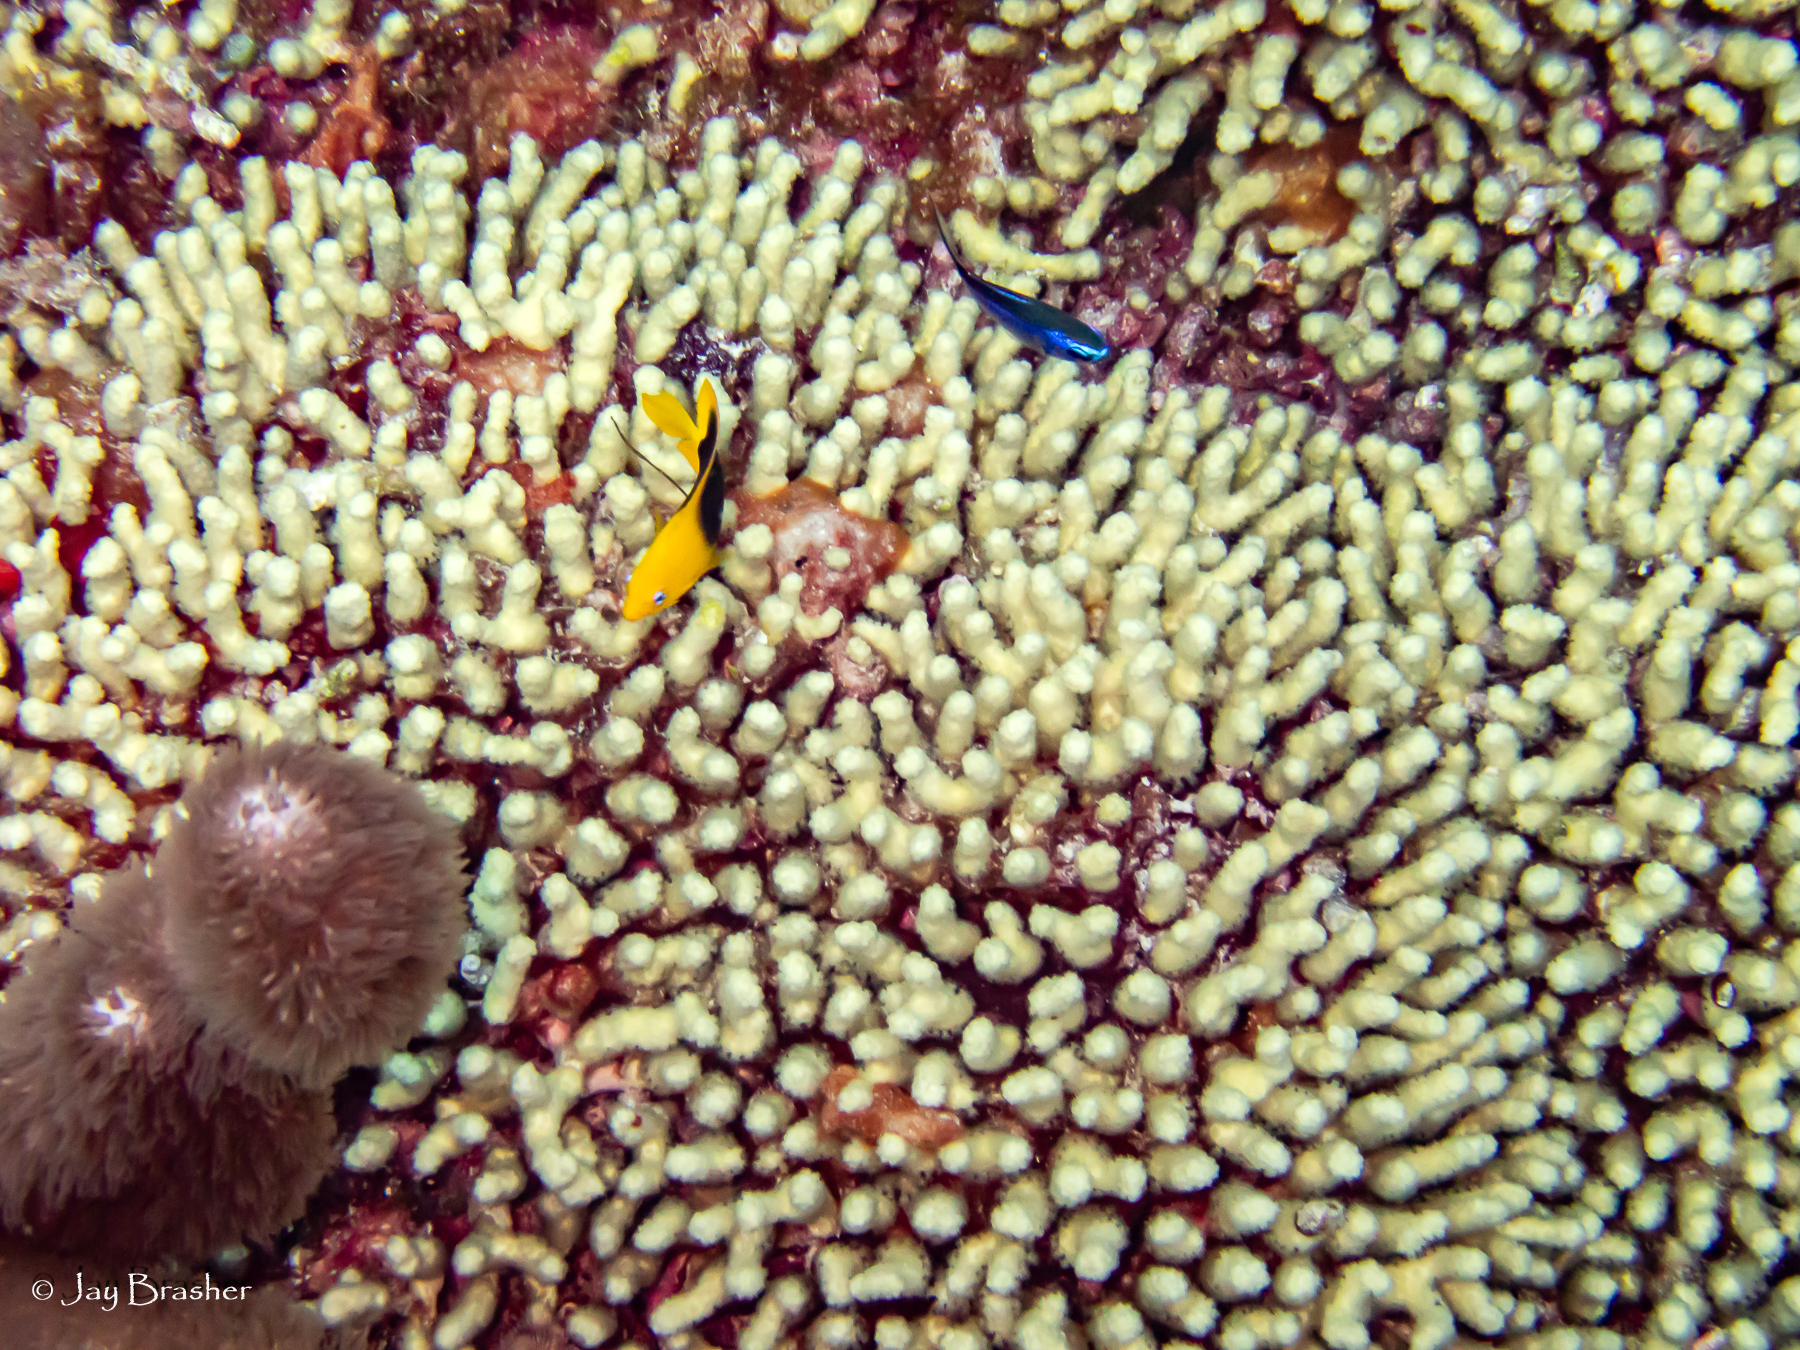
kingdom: Animalia
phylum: Chordata
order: Perciformes
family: Pomacentridae
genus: Chromis
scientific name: Chromis cyanea
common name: Blue chromis
